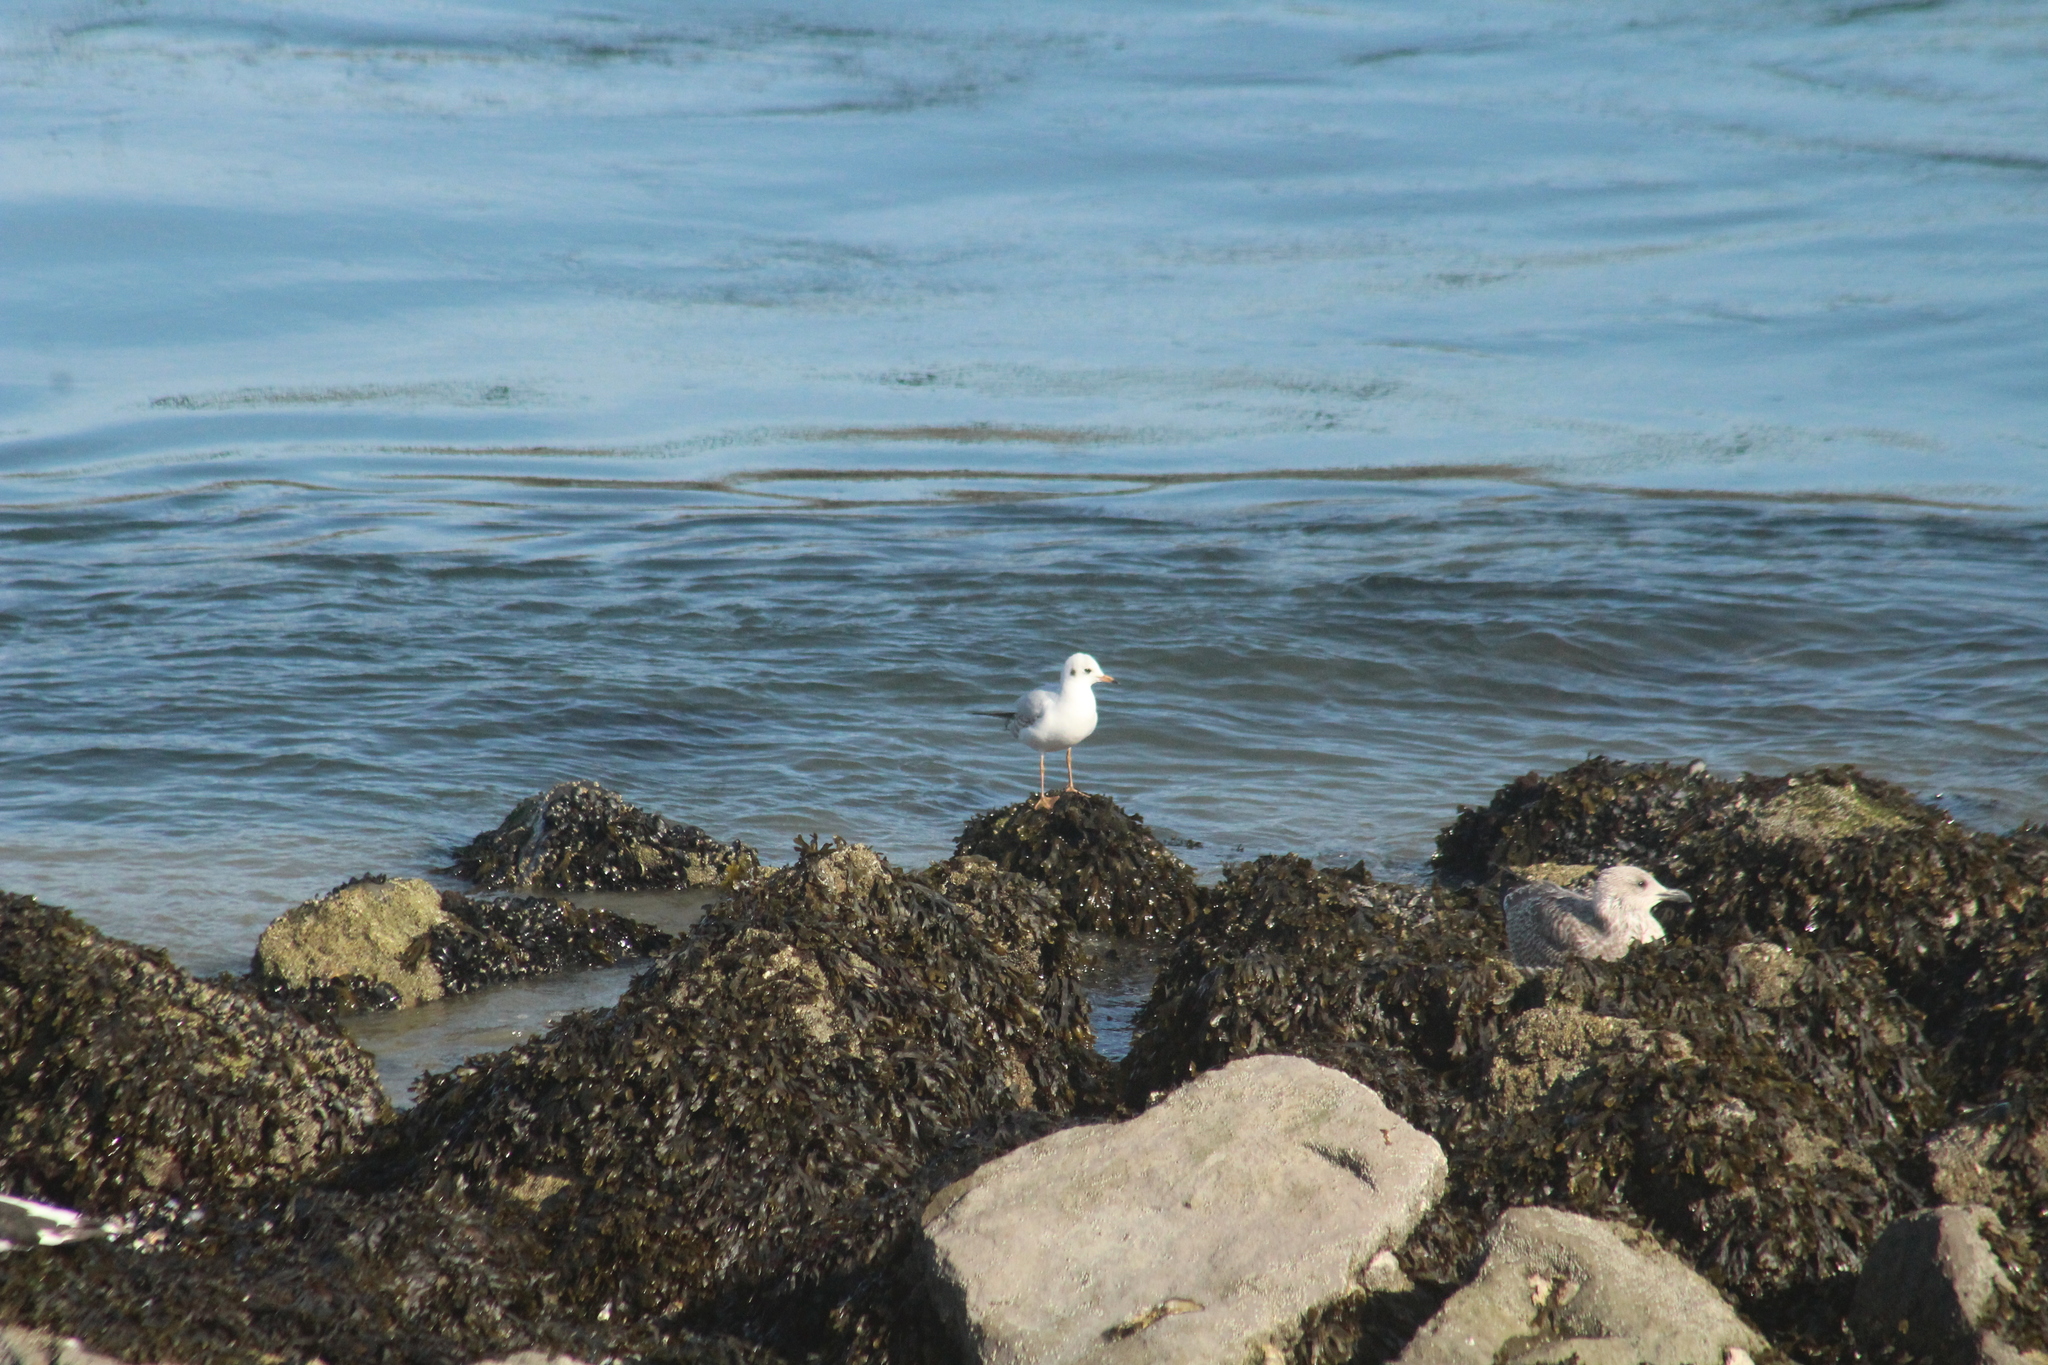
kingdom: Animalia
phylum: Chordata
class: Aves
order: Charadriiformes
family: Laridae
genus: Chroicocephalus
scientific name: Chroicocephalus ridibundus
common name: Black-headed gull
